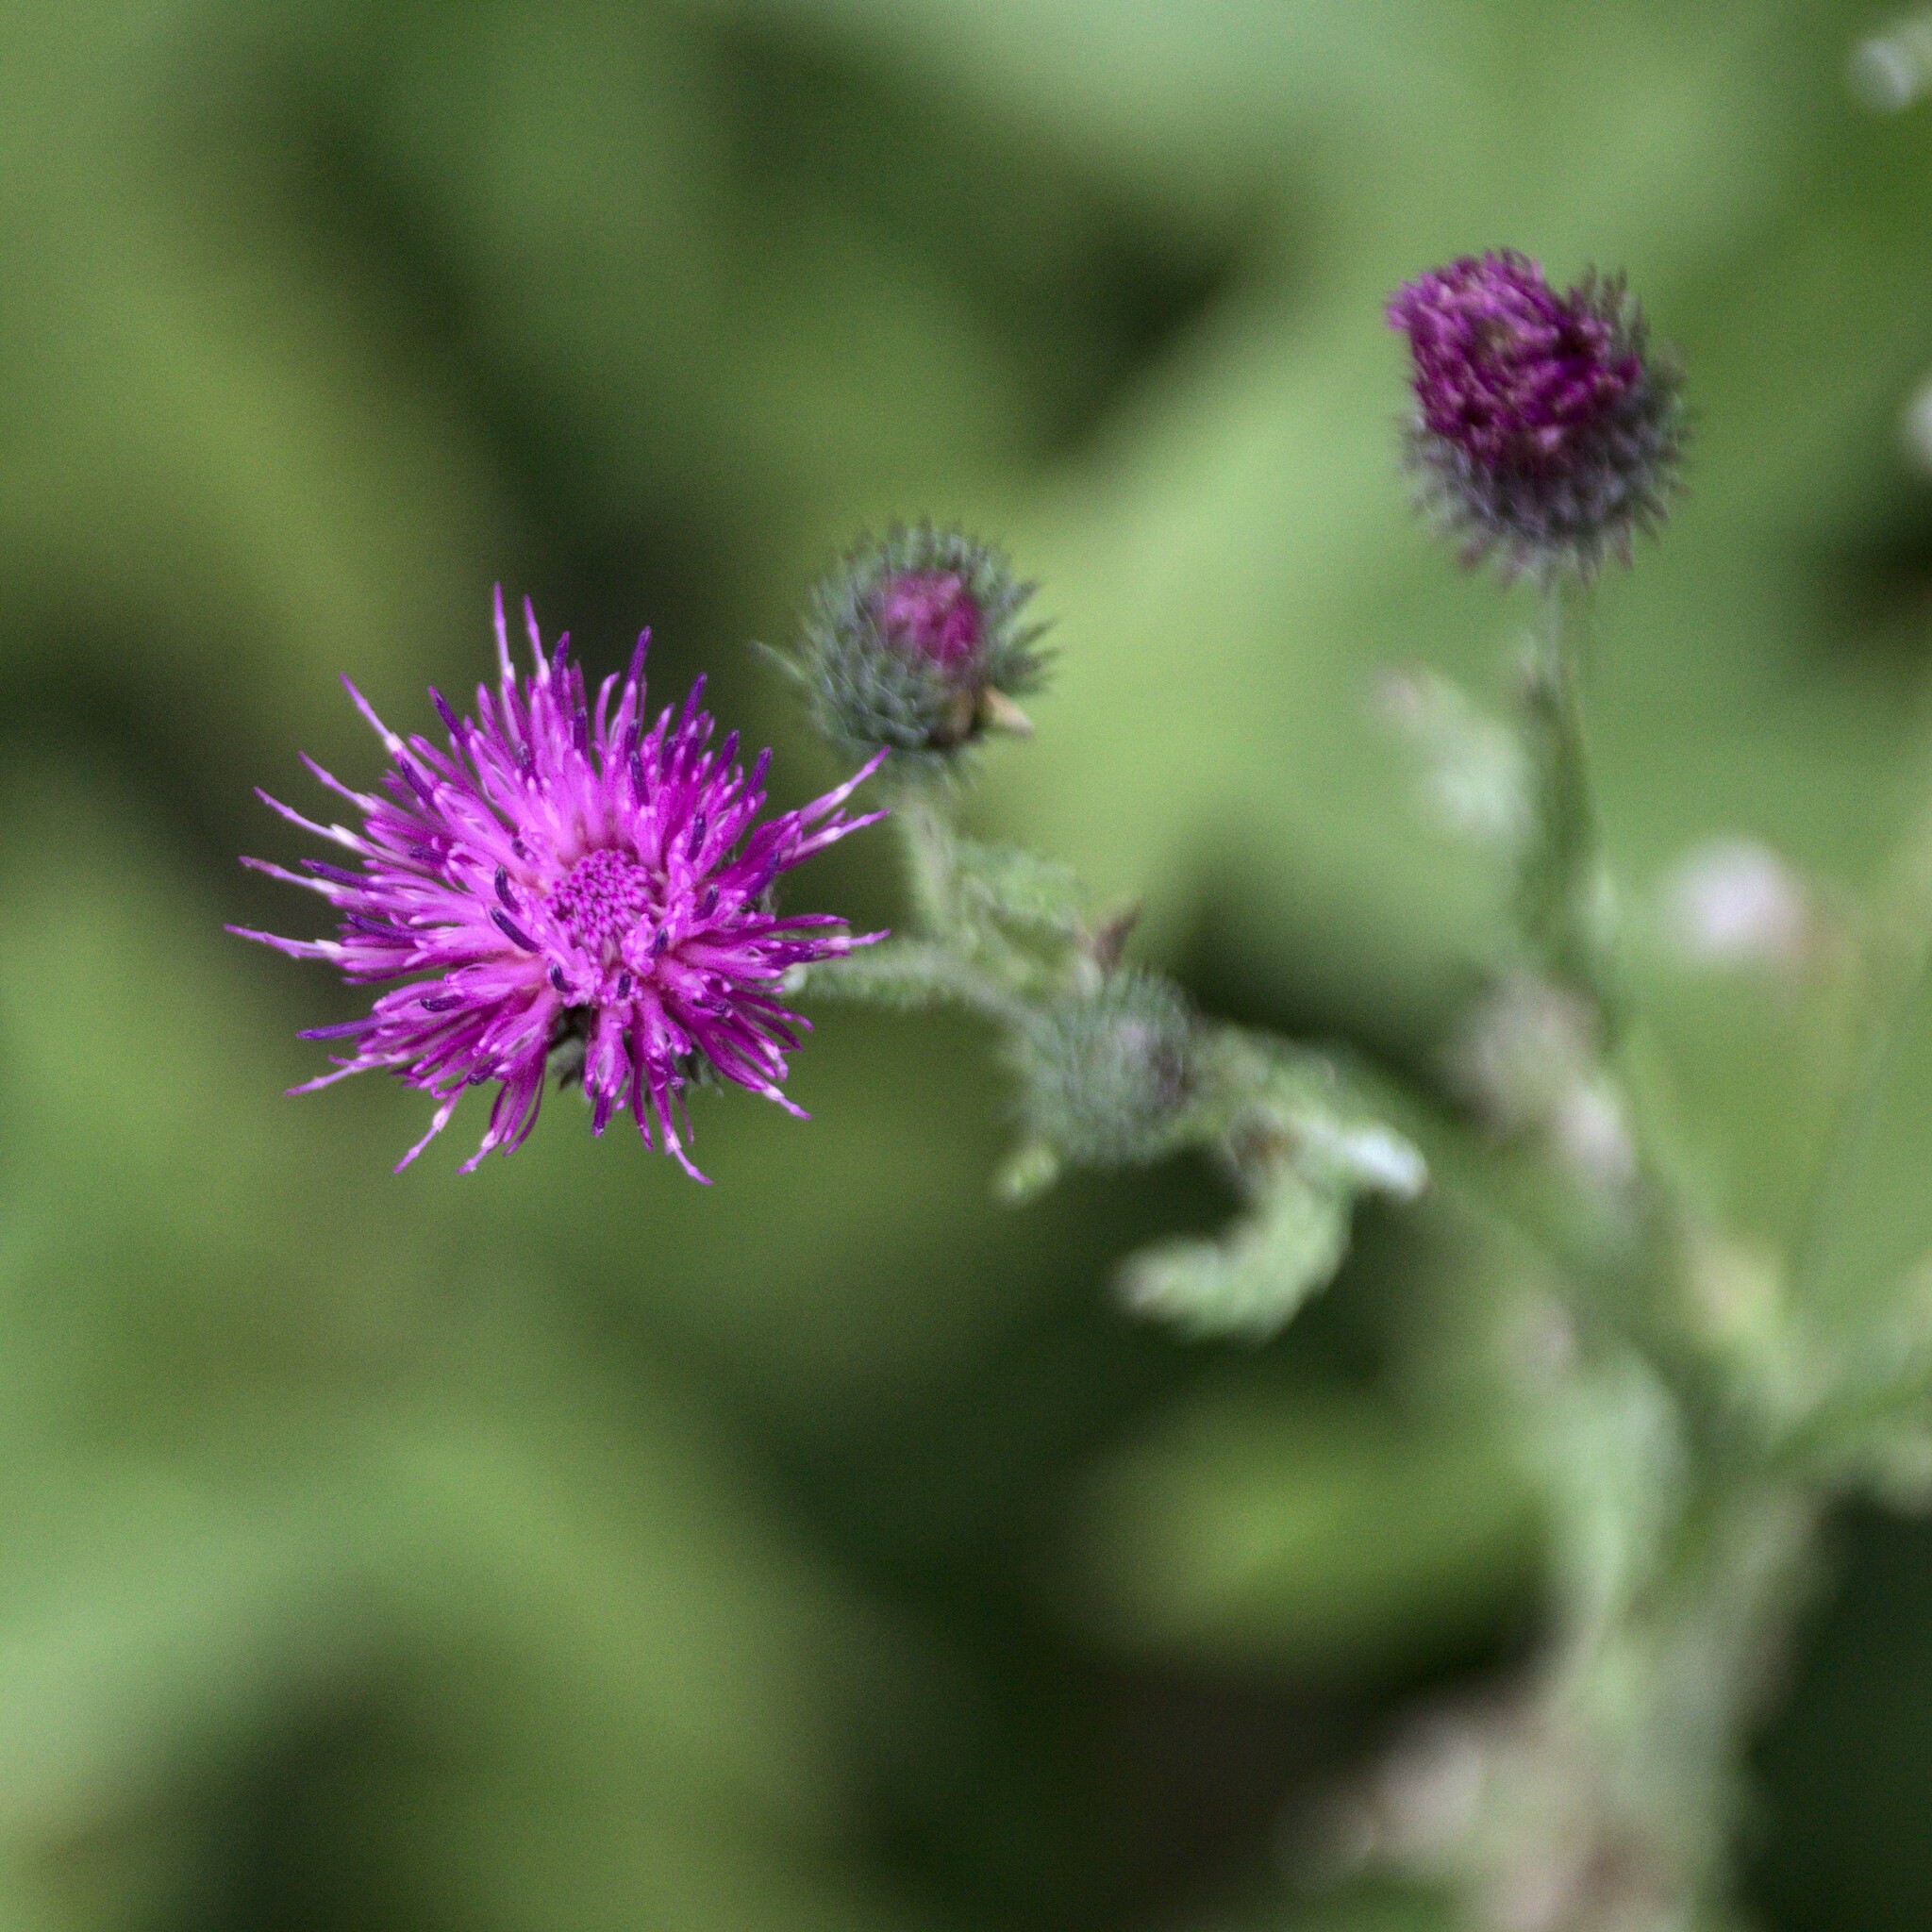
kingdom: Plantae
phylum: Tracheophyta
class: Magnoliopsida
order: Asterales
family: Asteraceae
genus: Carduus
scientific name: Carduus crispus
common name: Welted thistle
